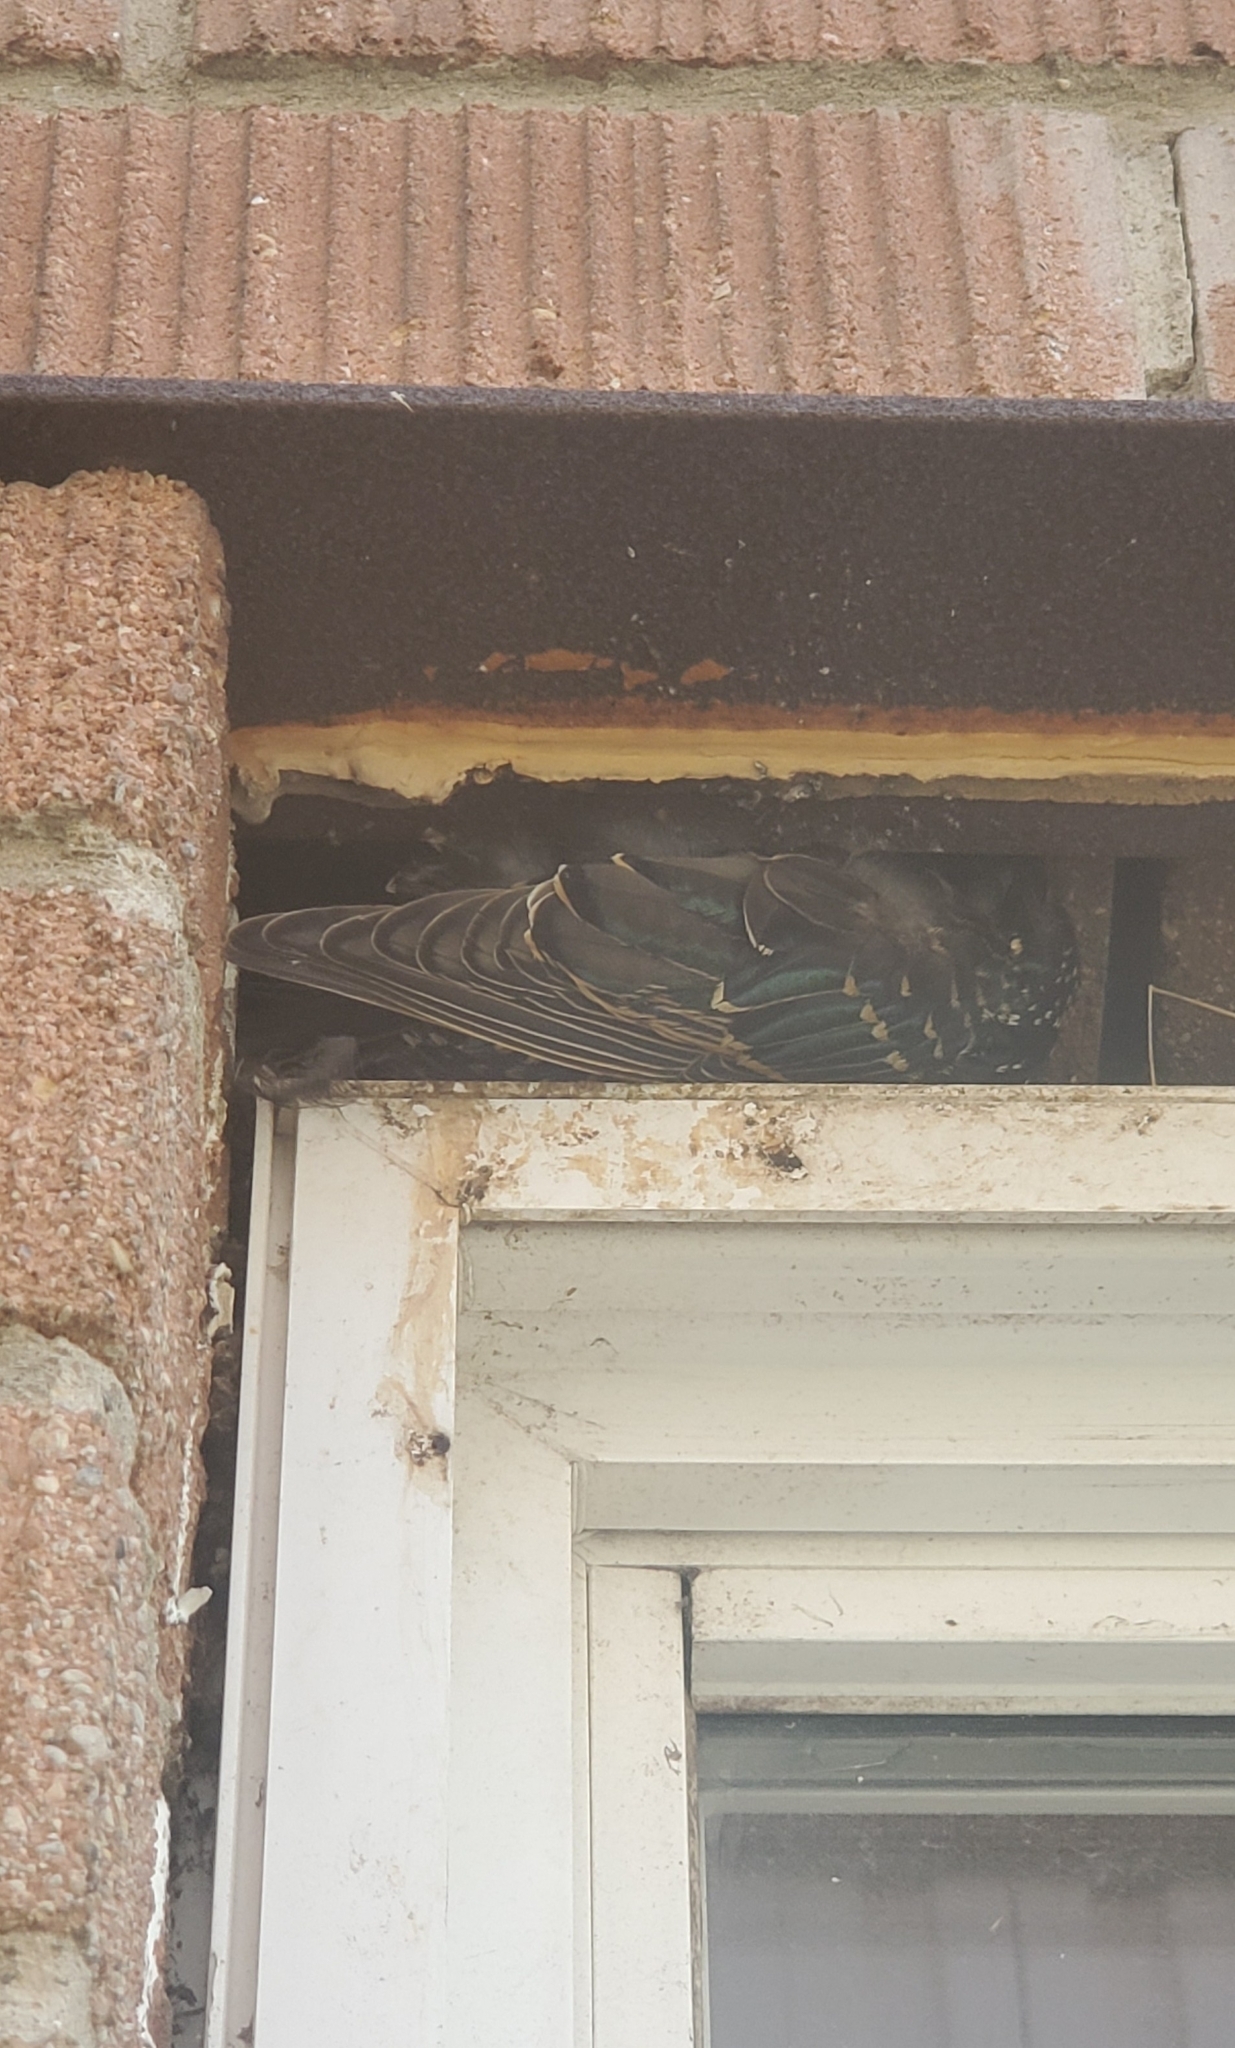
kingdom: Animalia
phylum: Chordata
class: Aves
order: Passeriformes
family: Sturnidae
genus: Sturnus
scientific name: Sturnus vulgaris
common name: Common starling
